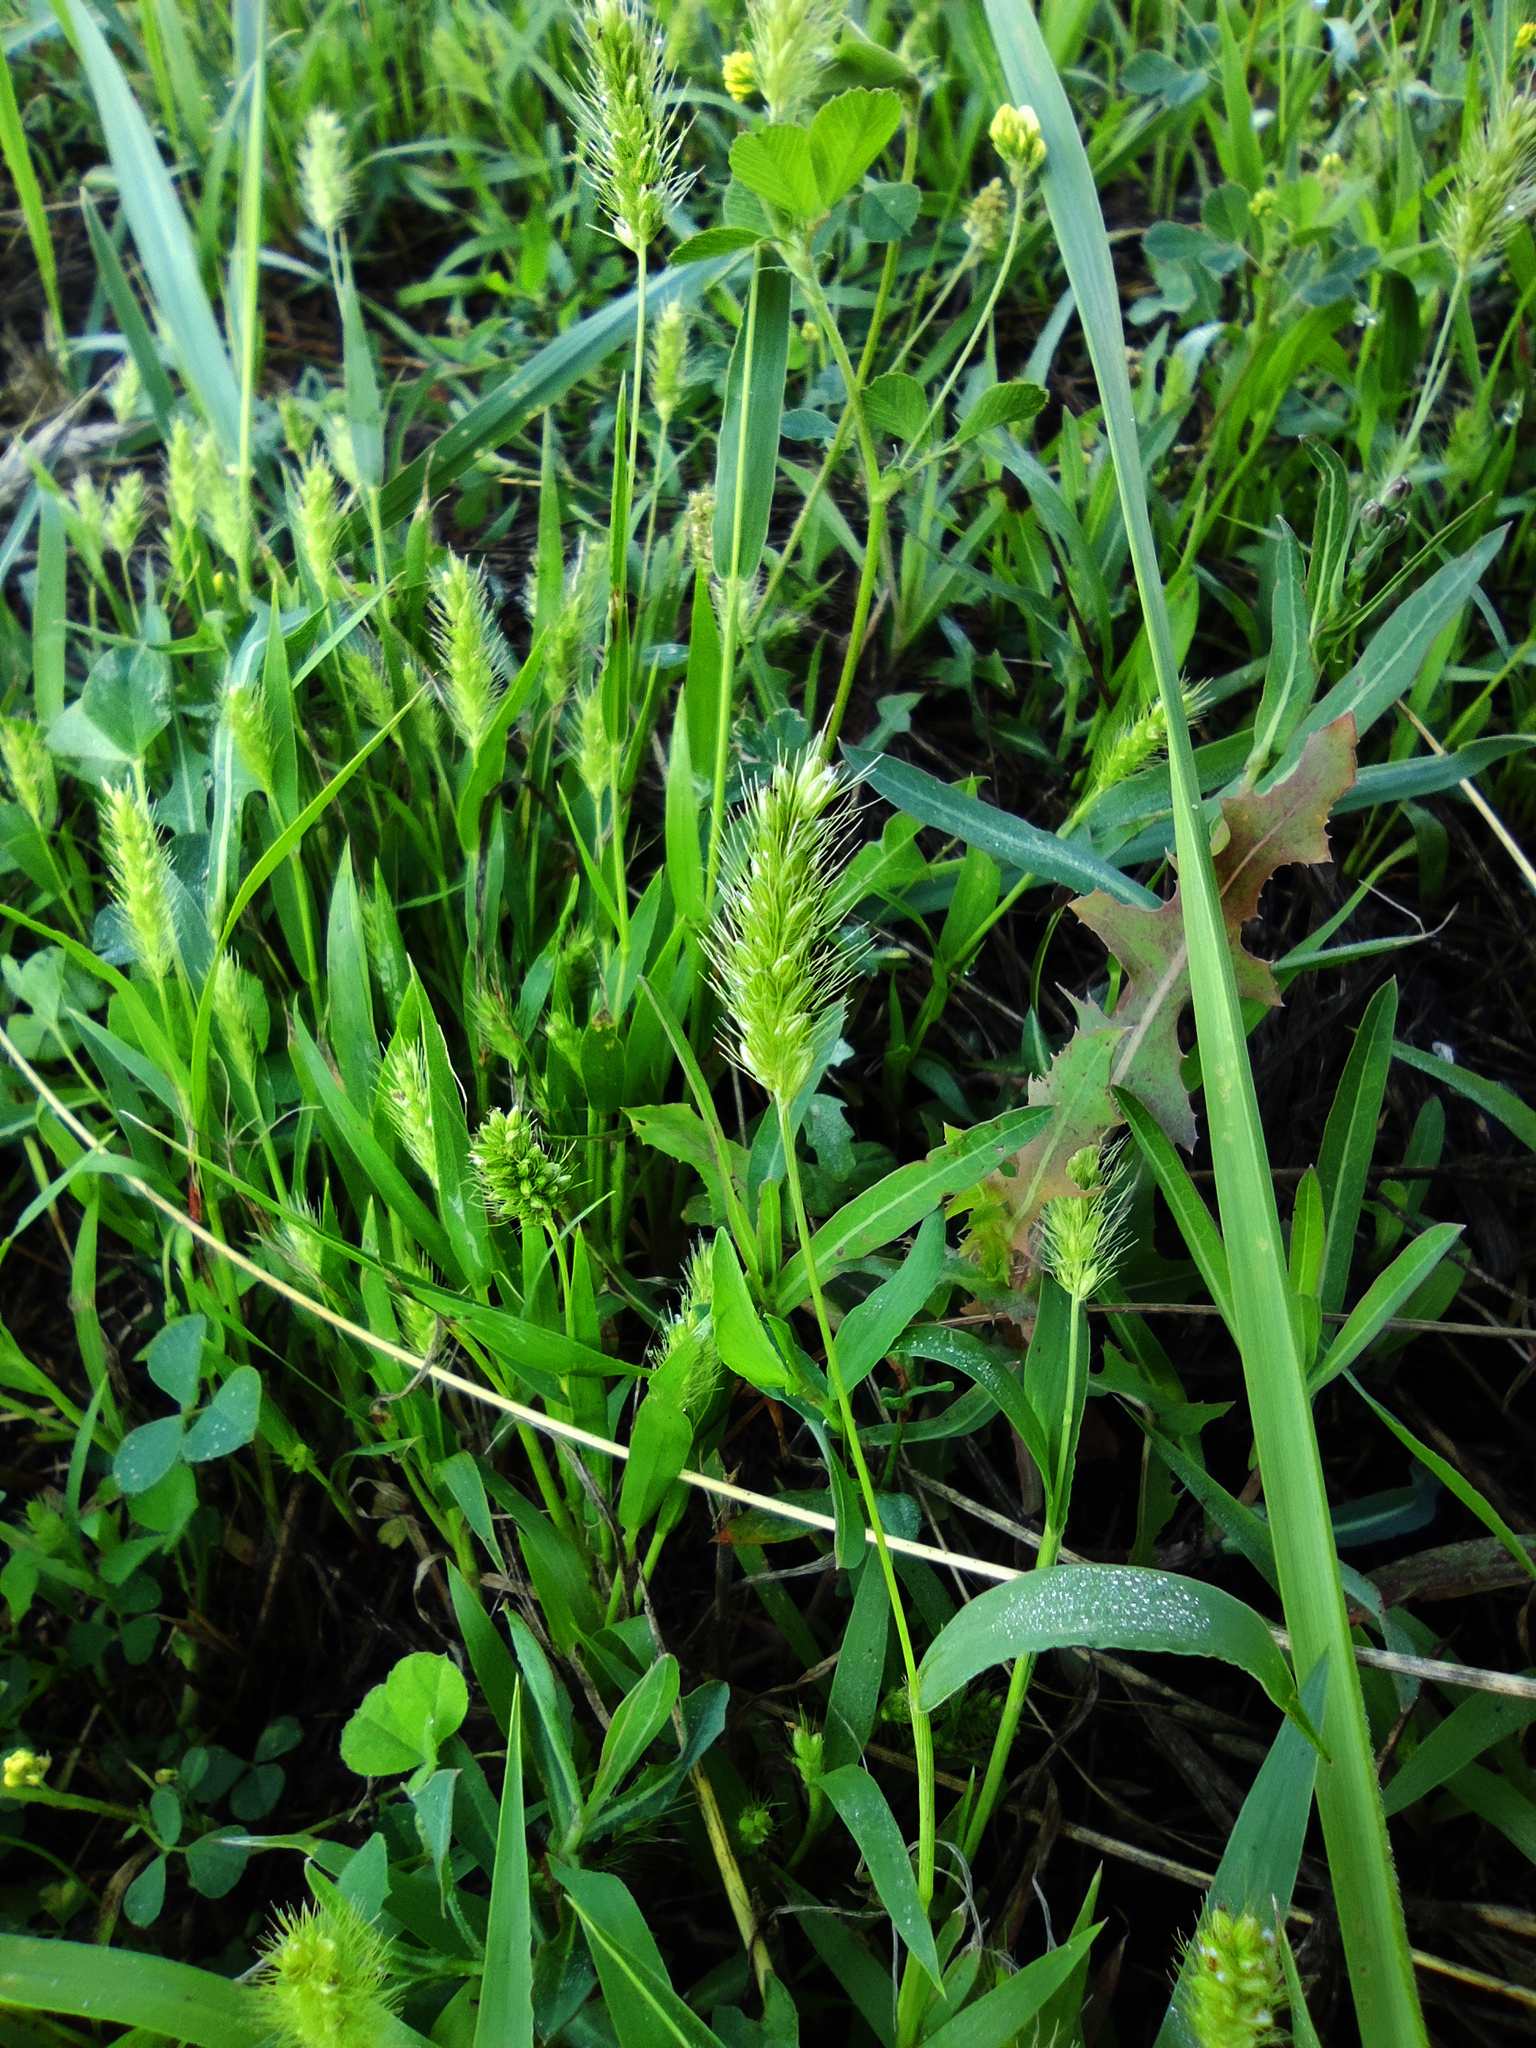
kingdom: Plantae
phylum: Tracheophyta
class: Liliopsida
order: Poales
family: Poaceae
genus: Setaria
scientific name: Setaria viridis
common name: Green bristlegrass
